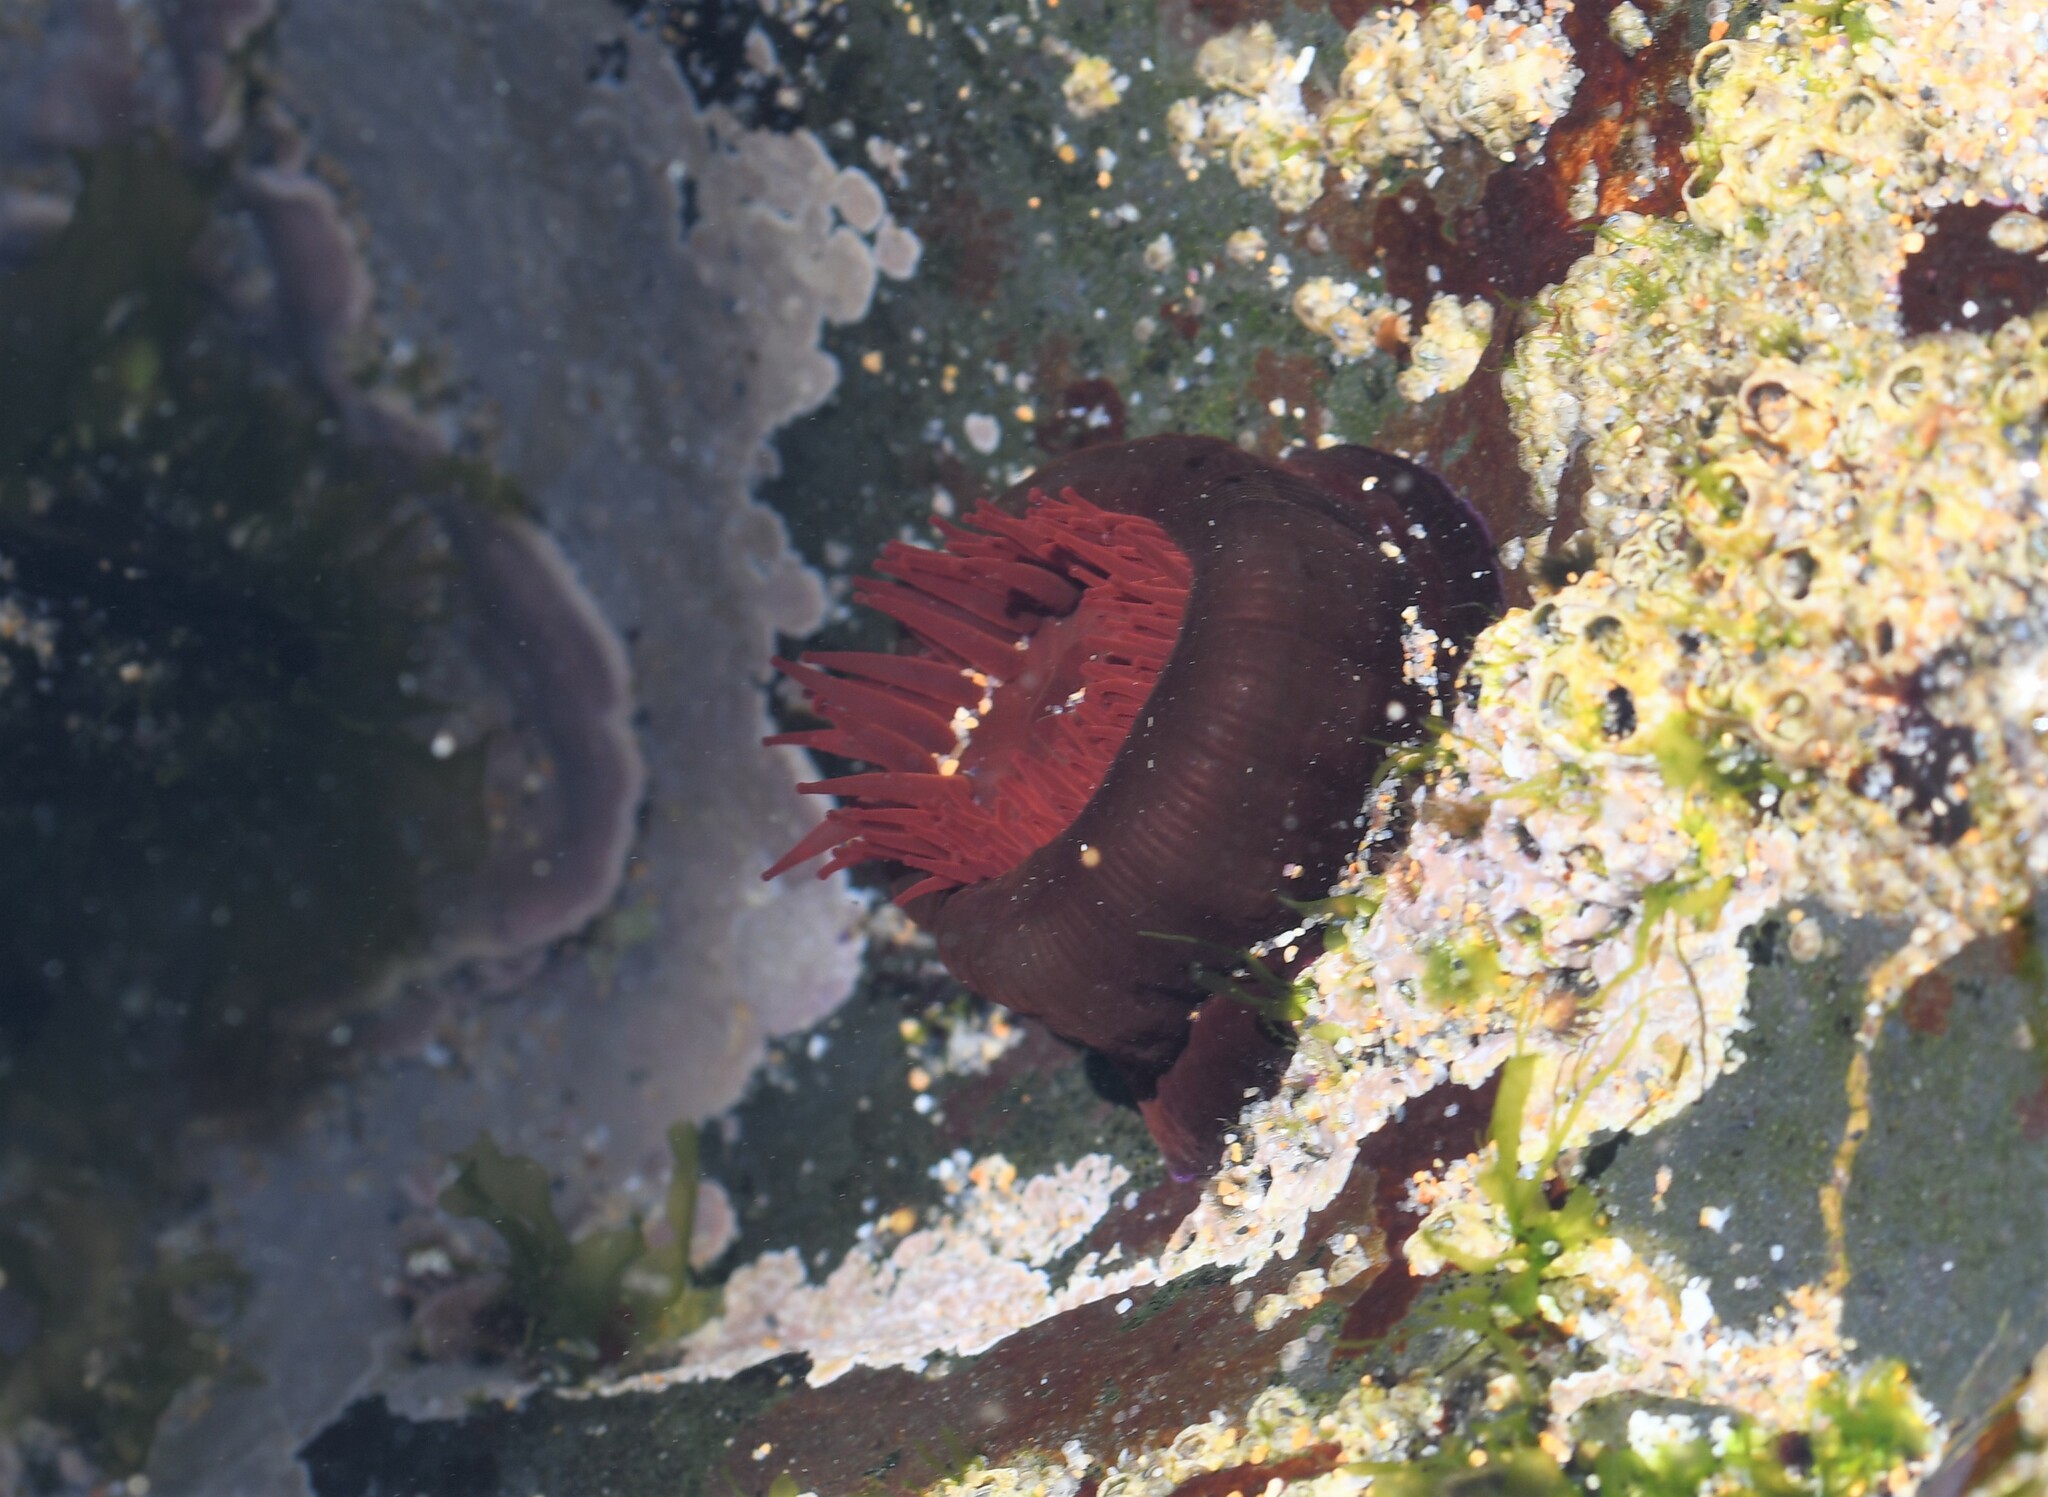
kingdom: Animalia
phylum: Cnidaria
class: Anthozoa
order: Actiniaria
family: Actiniidae
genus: Actinia
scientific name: Actinia equina
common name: Beadlet anemone
